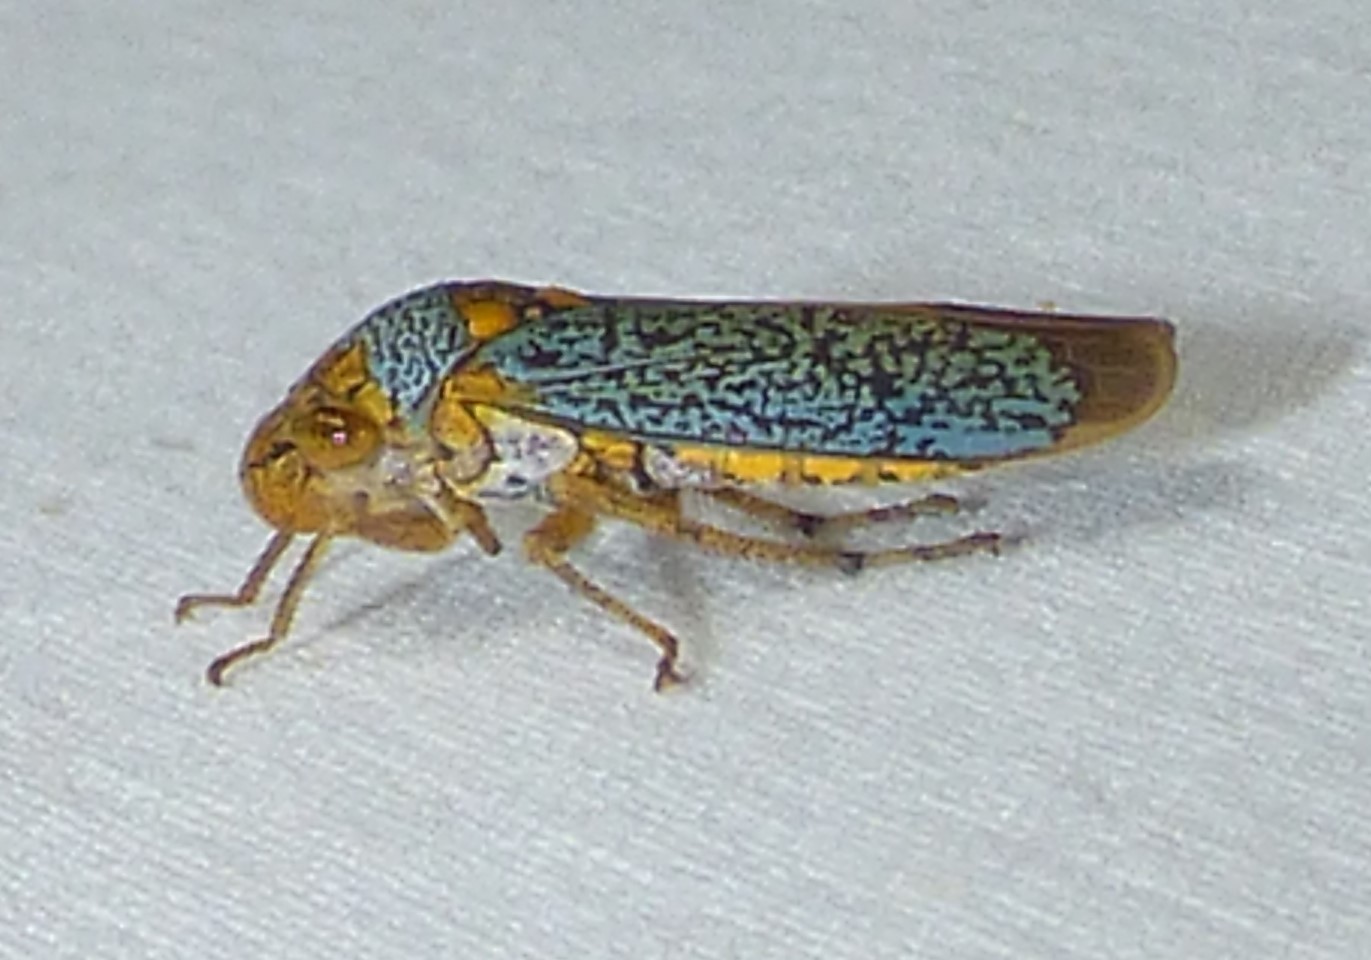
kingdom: Animalia
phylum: Arthropoda
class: Insecta
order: Hemiptera
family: Cicadellidae
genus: Oncometopia
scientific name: Oncometopia orbona
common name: Broad-headed sharpshooter
